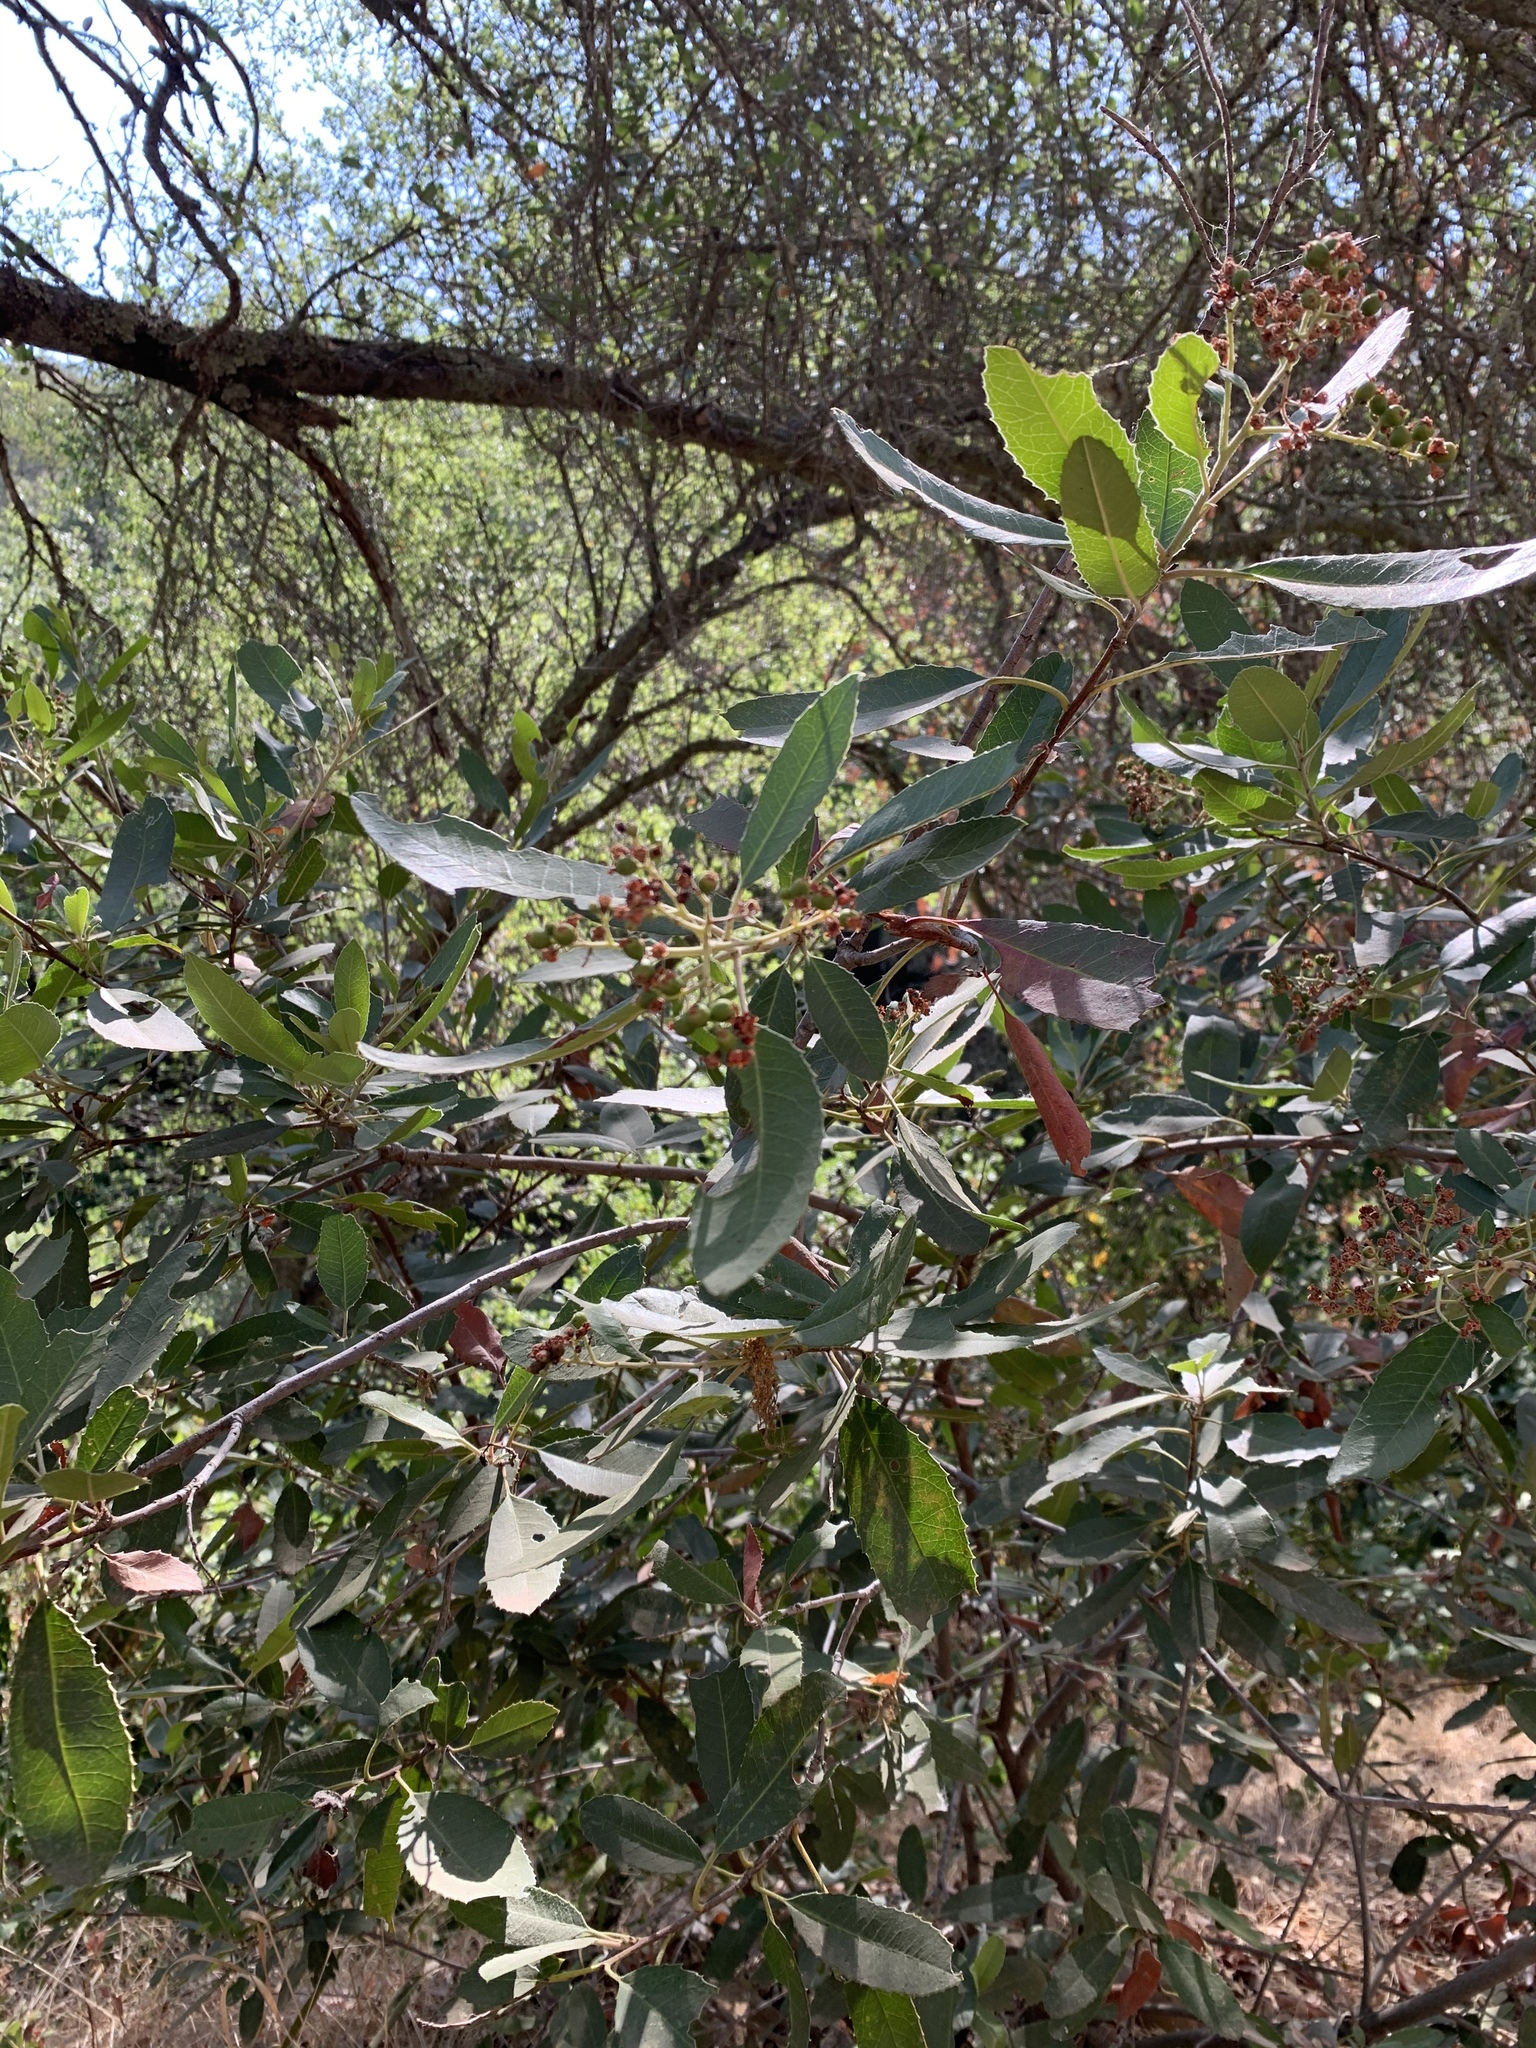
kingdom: Plantae
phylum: Tracheophyta
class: Magnoliopsida
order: Rosales
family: Rosaceae
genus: Heteromeles
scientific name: Heteromeles arbutifolia
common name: California-holly
